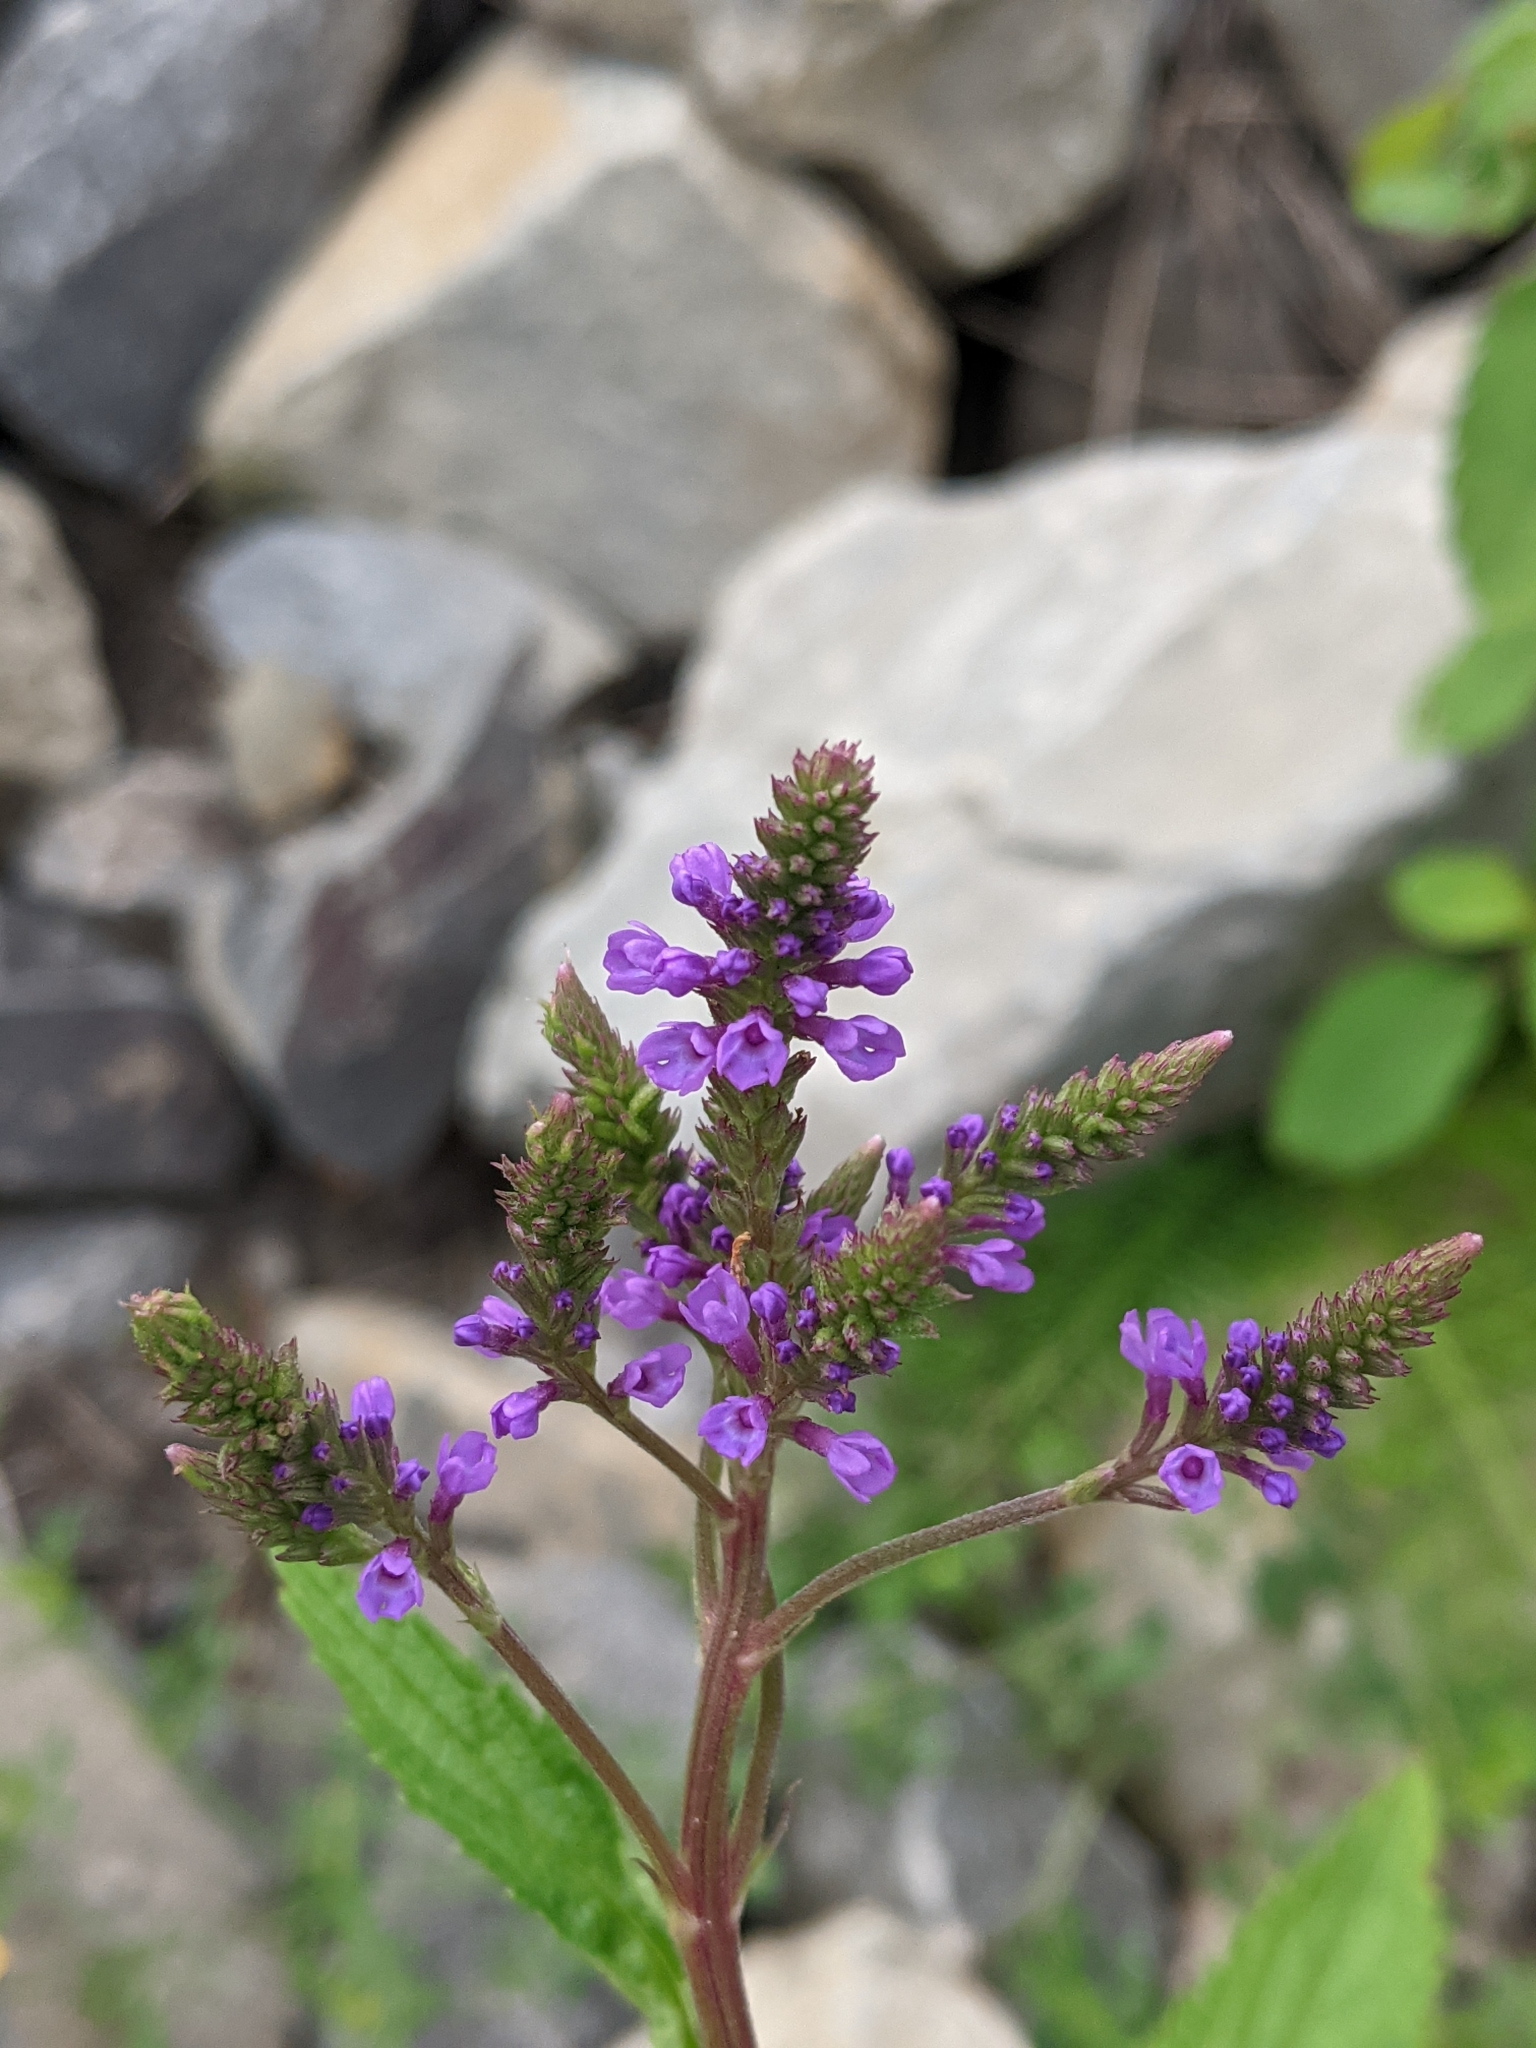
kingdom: Plantae
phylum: Tracheophyta
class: Magnoliopsida
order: Lamiales
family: Verbenaceae
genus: Verbena
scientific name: Verbena hastata
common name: American blue vervain
